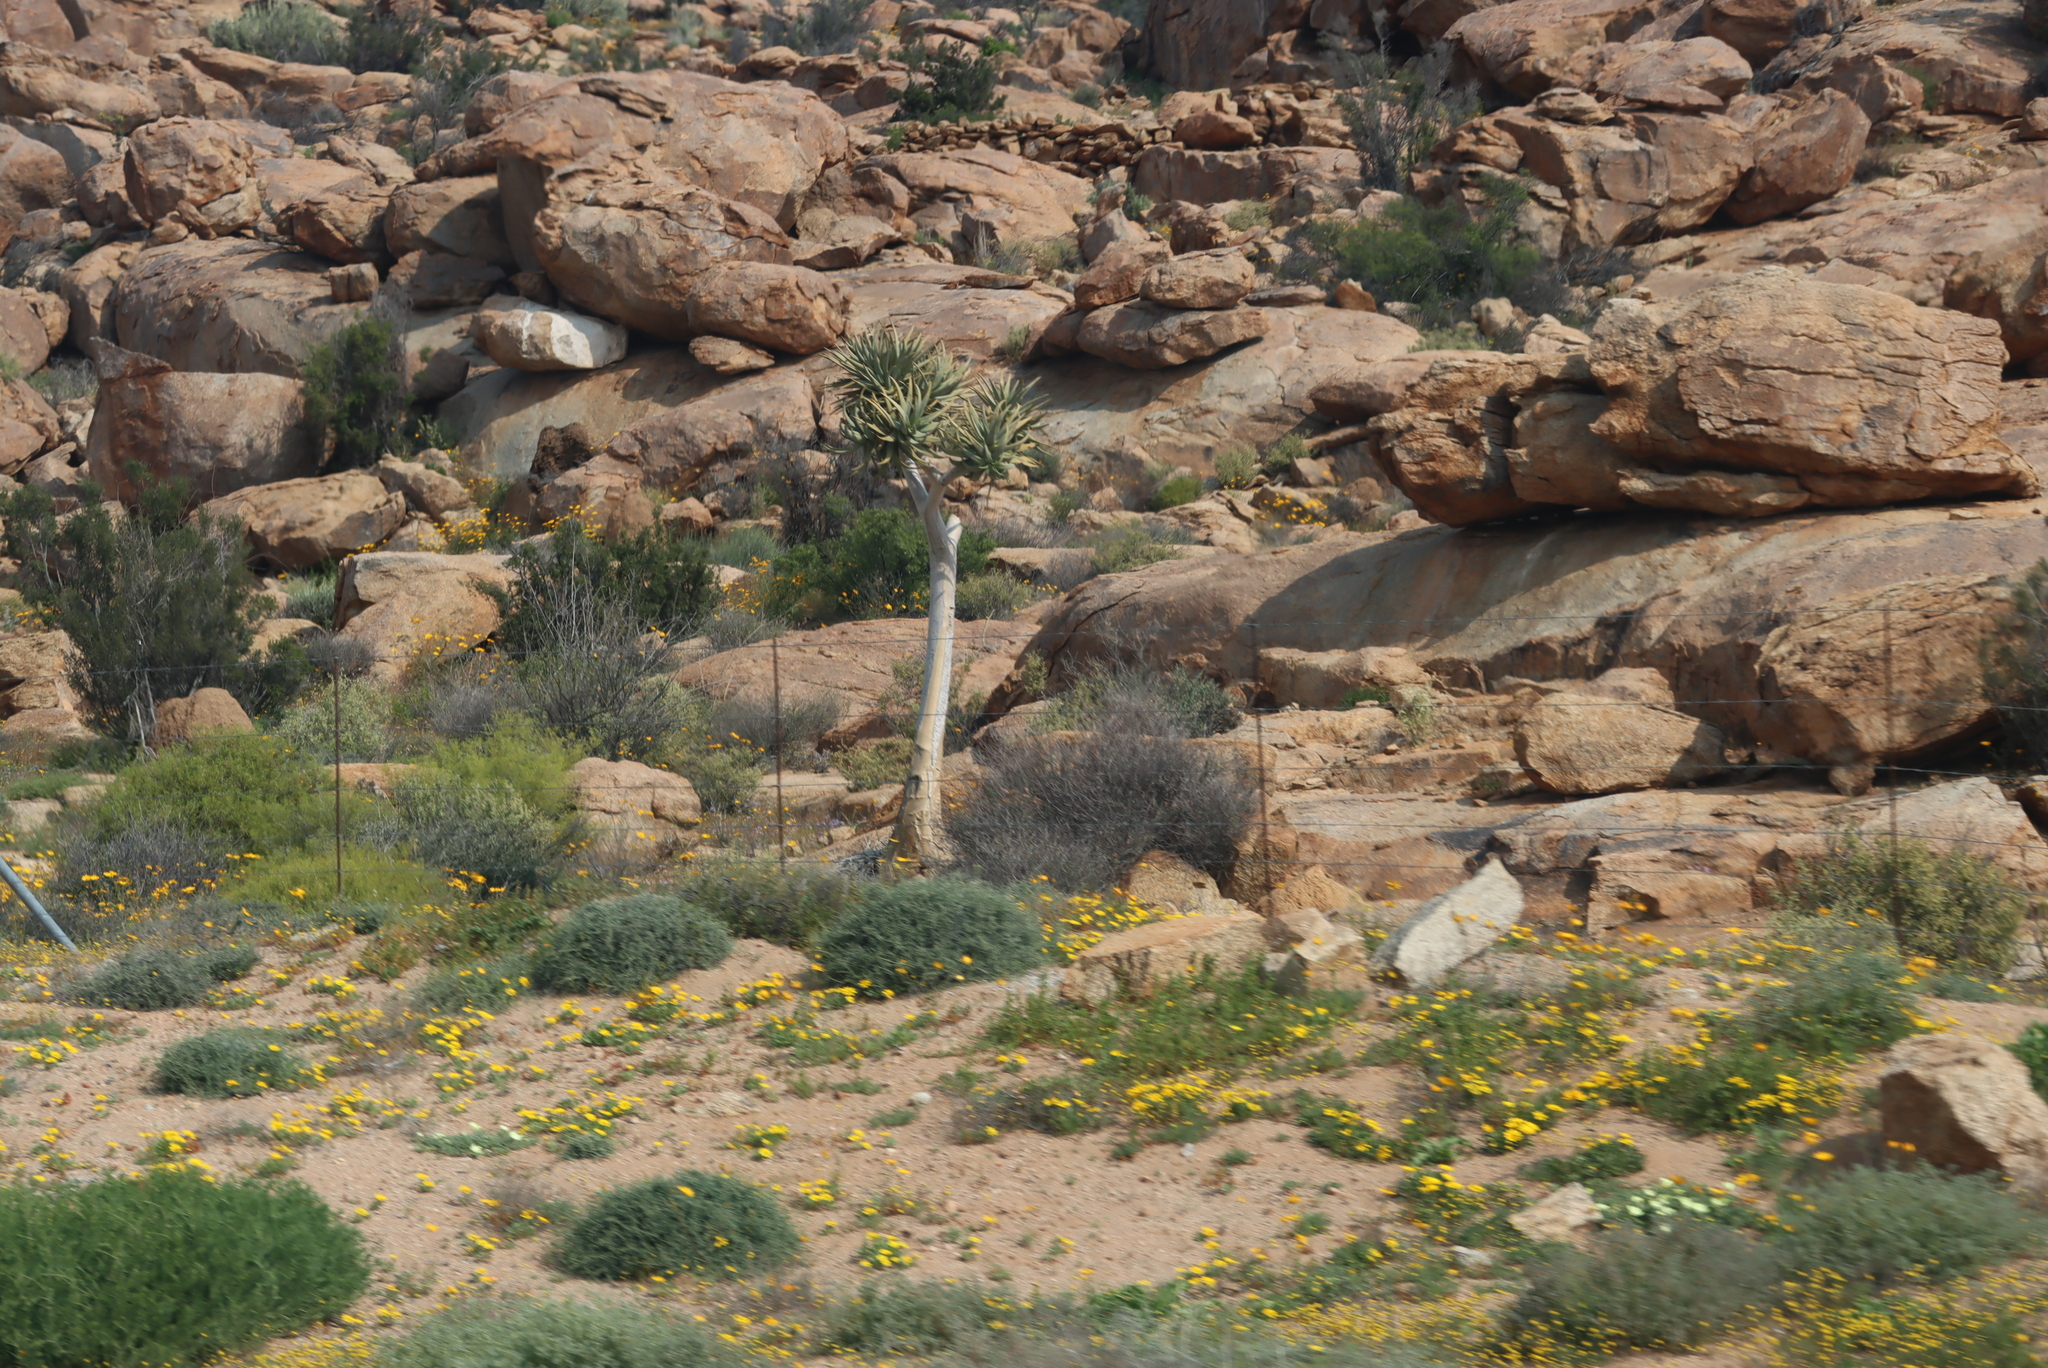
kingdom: Plantae
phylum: Tracheophyta
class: Liliopsida
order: Asparagales
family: Asphodelaceae
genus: Aloidendron
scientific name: Aloidendron dichotomum
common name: Quiver tree
